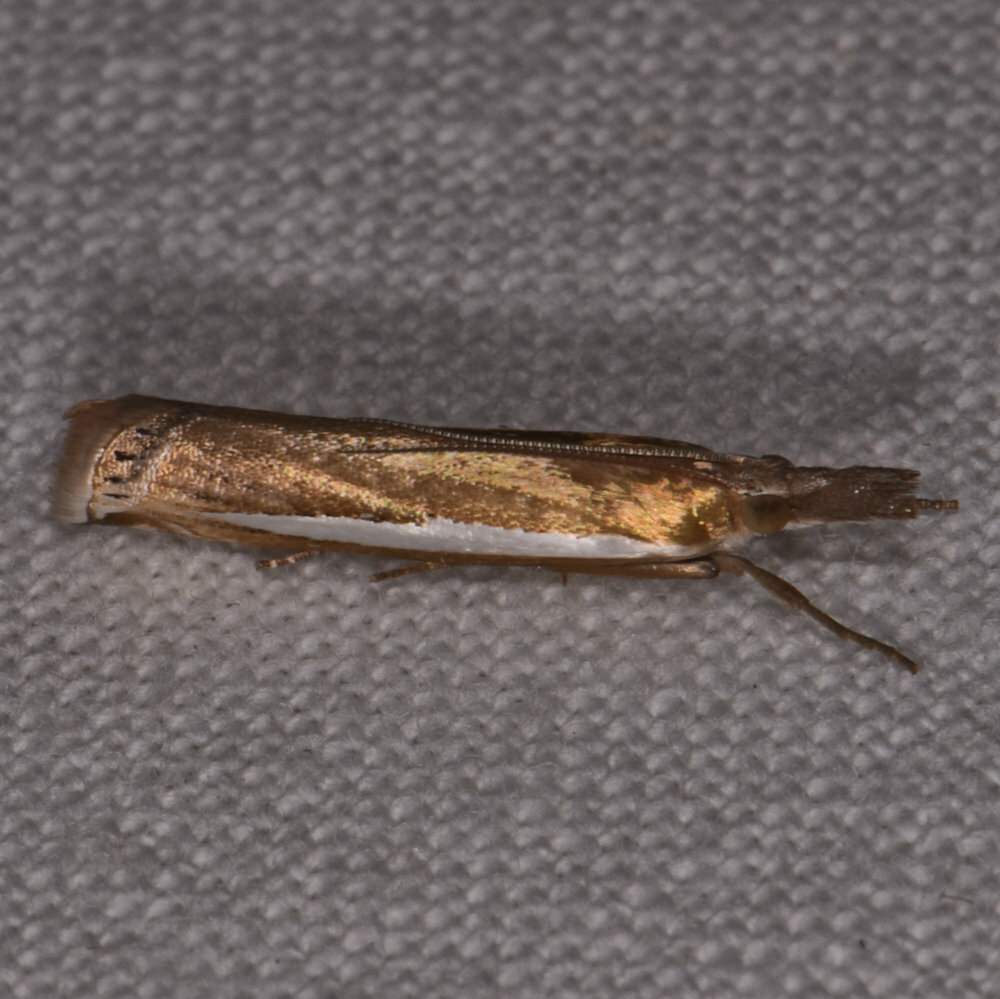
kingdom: Animalia
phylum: Arthropoda
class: Insecta
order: Lepidoptera
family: Crambidae
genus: Crambus
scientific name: Crambus praefectellus
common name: Common grass-veneer
